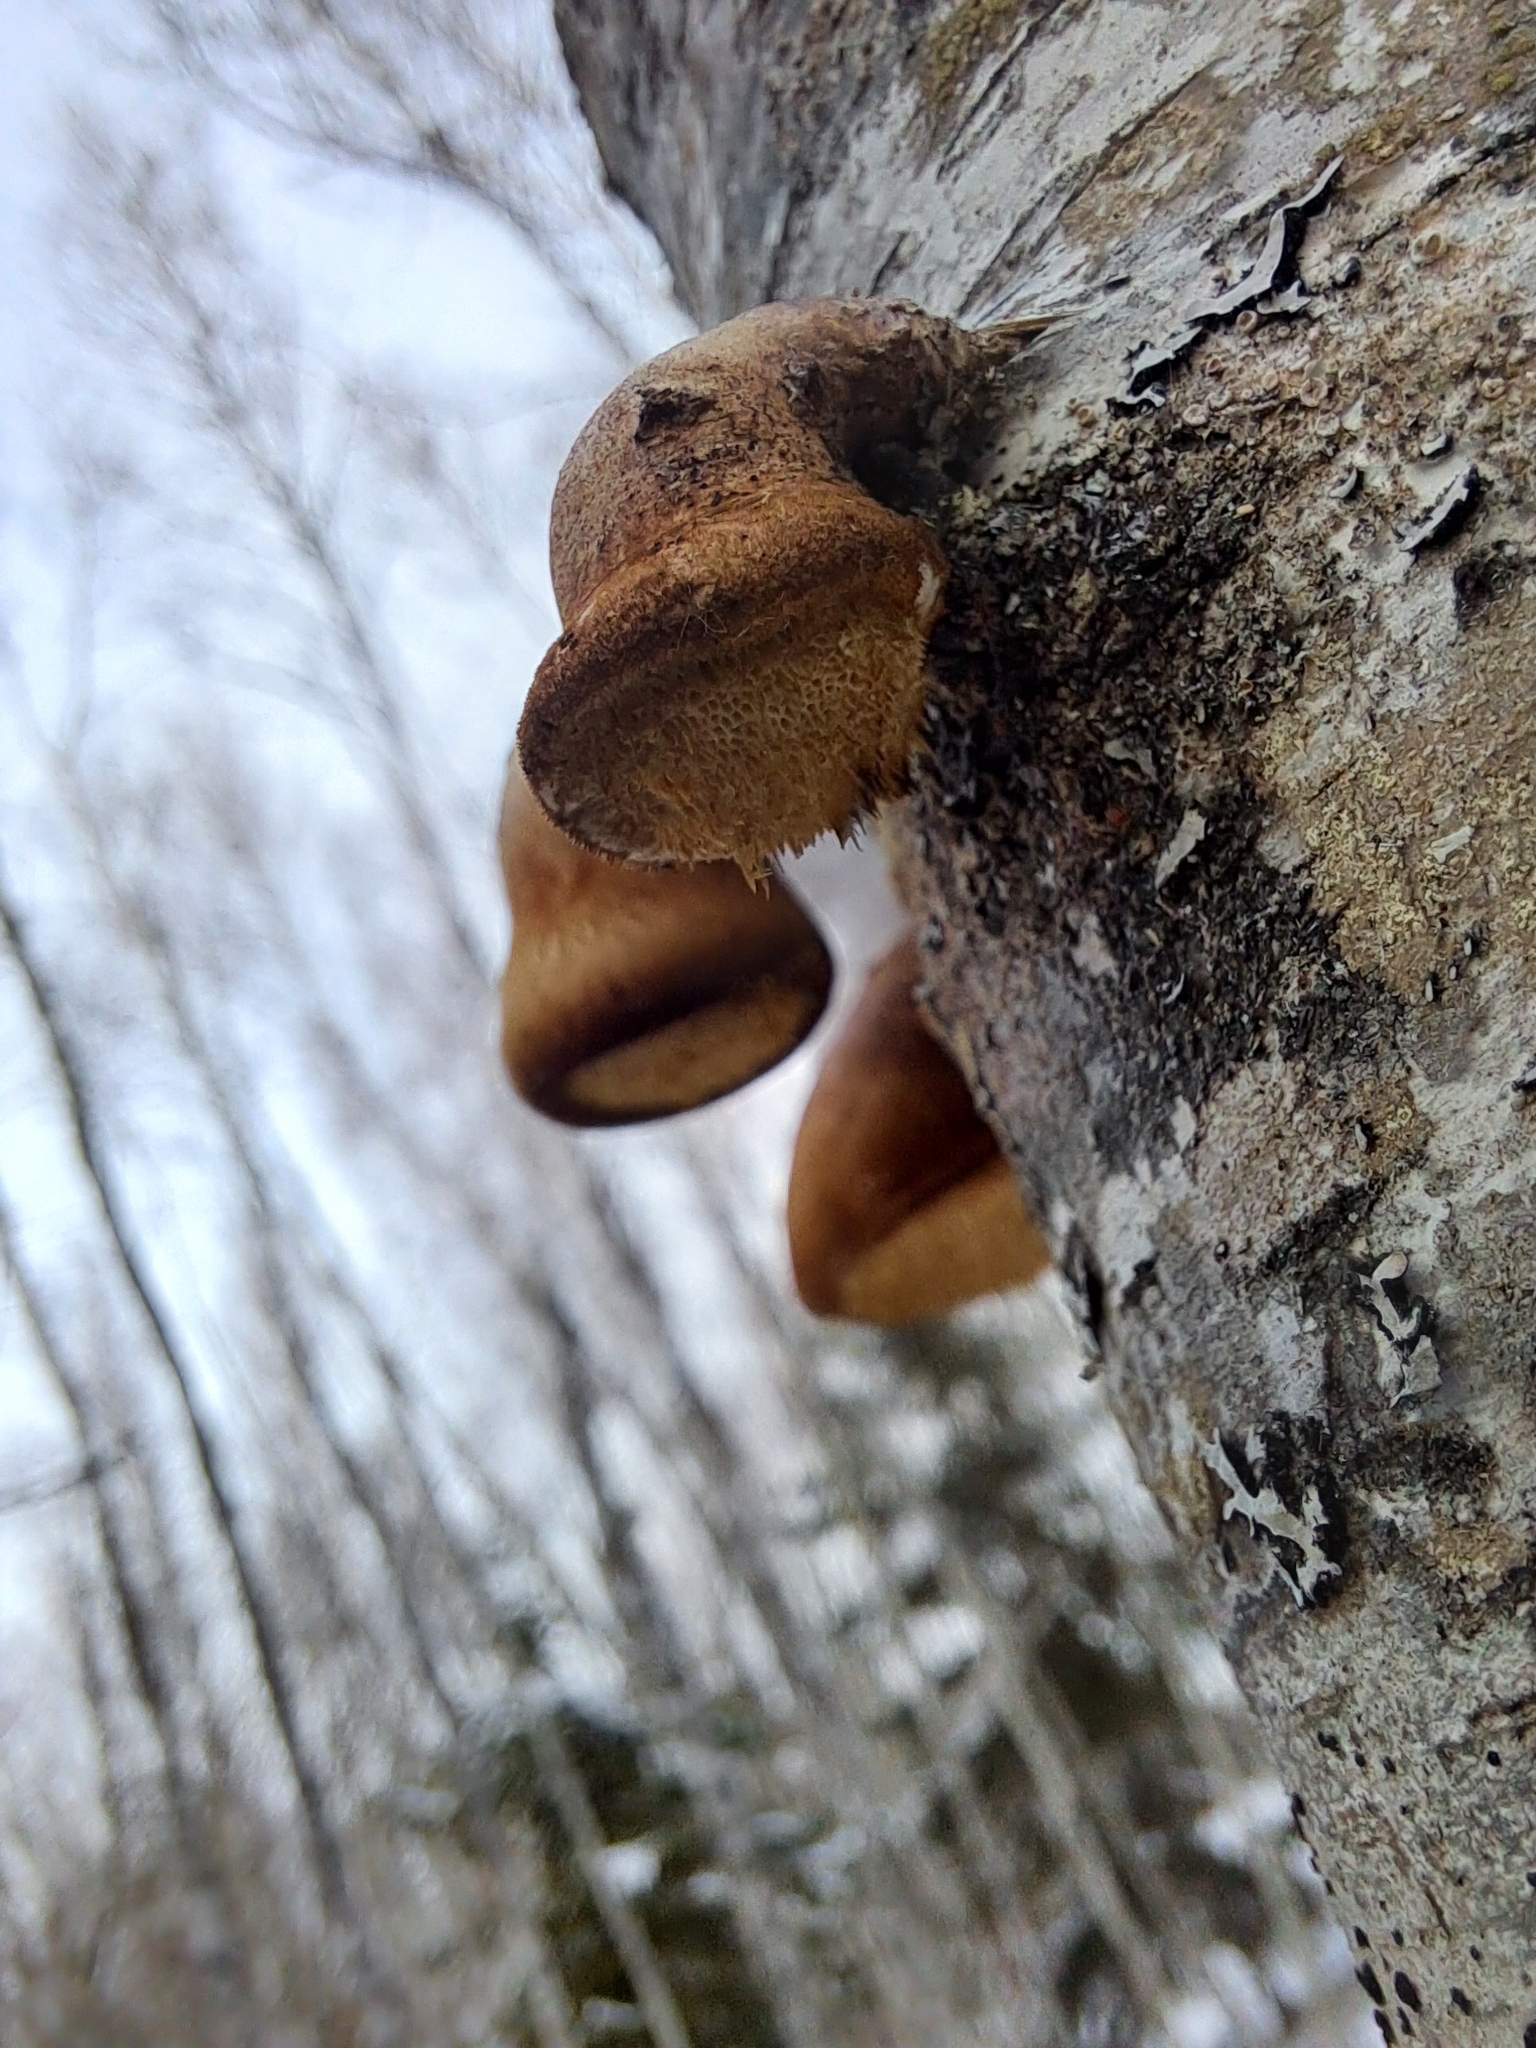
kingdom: Fungi
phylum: Basidiomycota
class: Agaricomycetes
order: Polyporales
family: Fomitopsidaceae
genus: Fomitopsis
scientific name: Fomitopsis betulina
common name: Birch polypore
